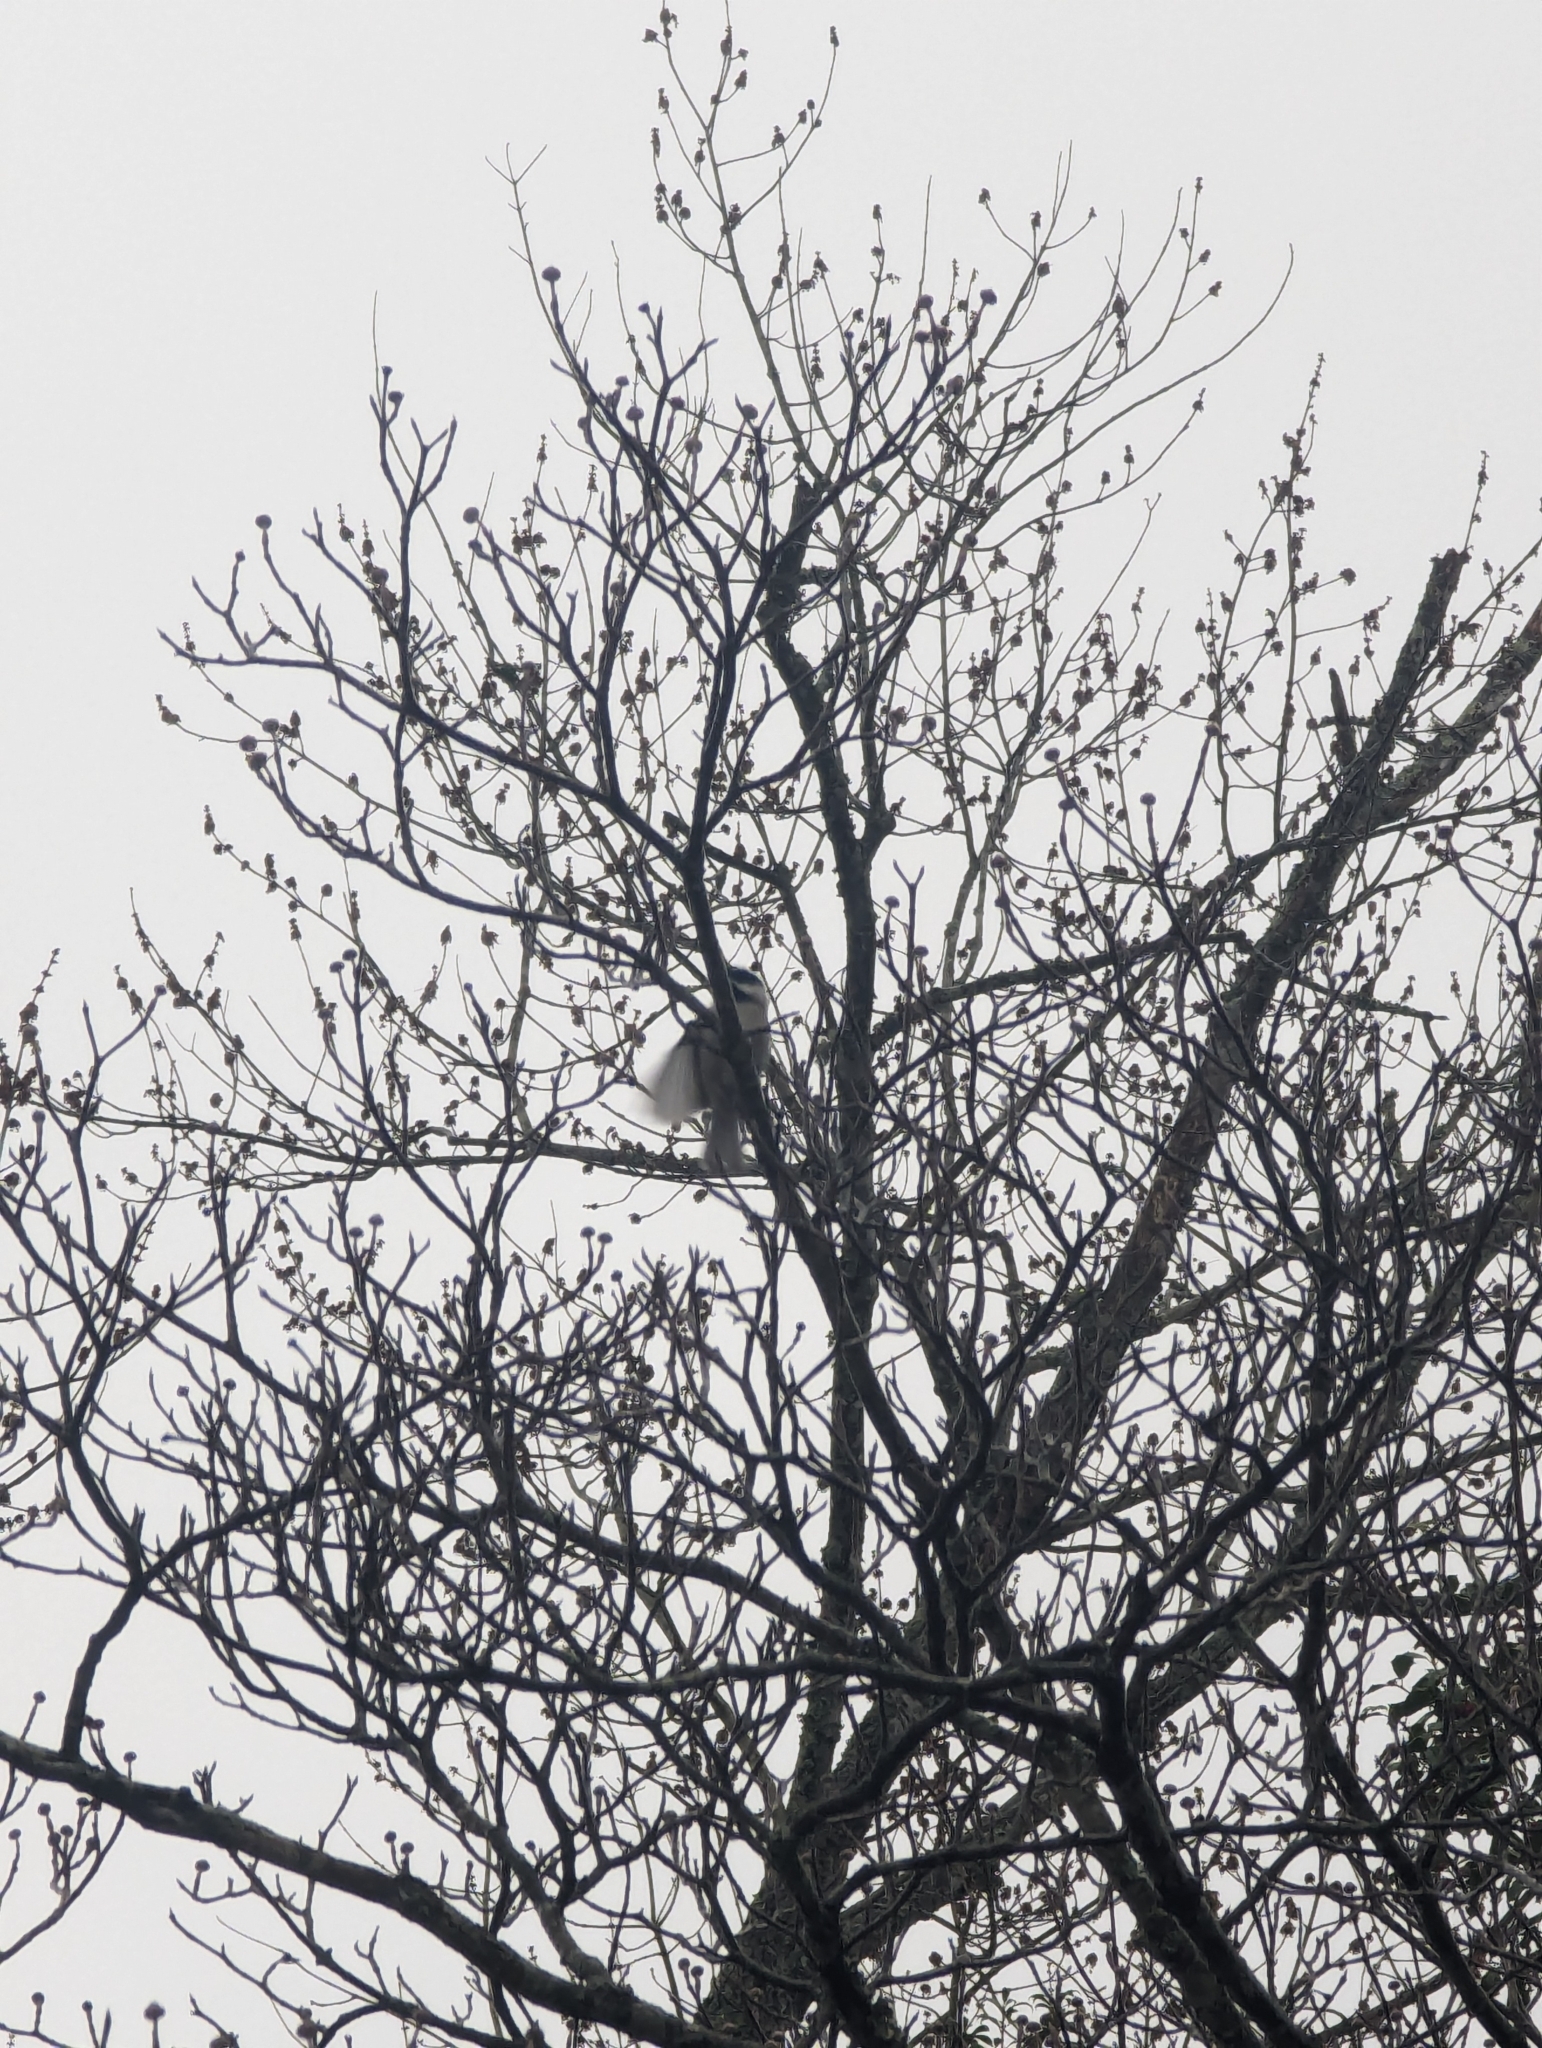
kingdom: Animalia
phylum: Chordata
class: Aves
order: Passeriformes
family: Paridae
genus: Poecile
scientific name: Poecile carolinensis
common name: Carolina chickadee
